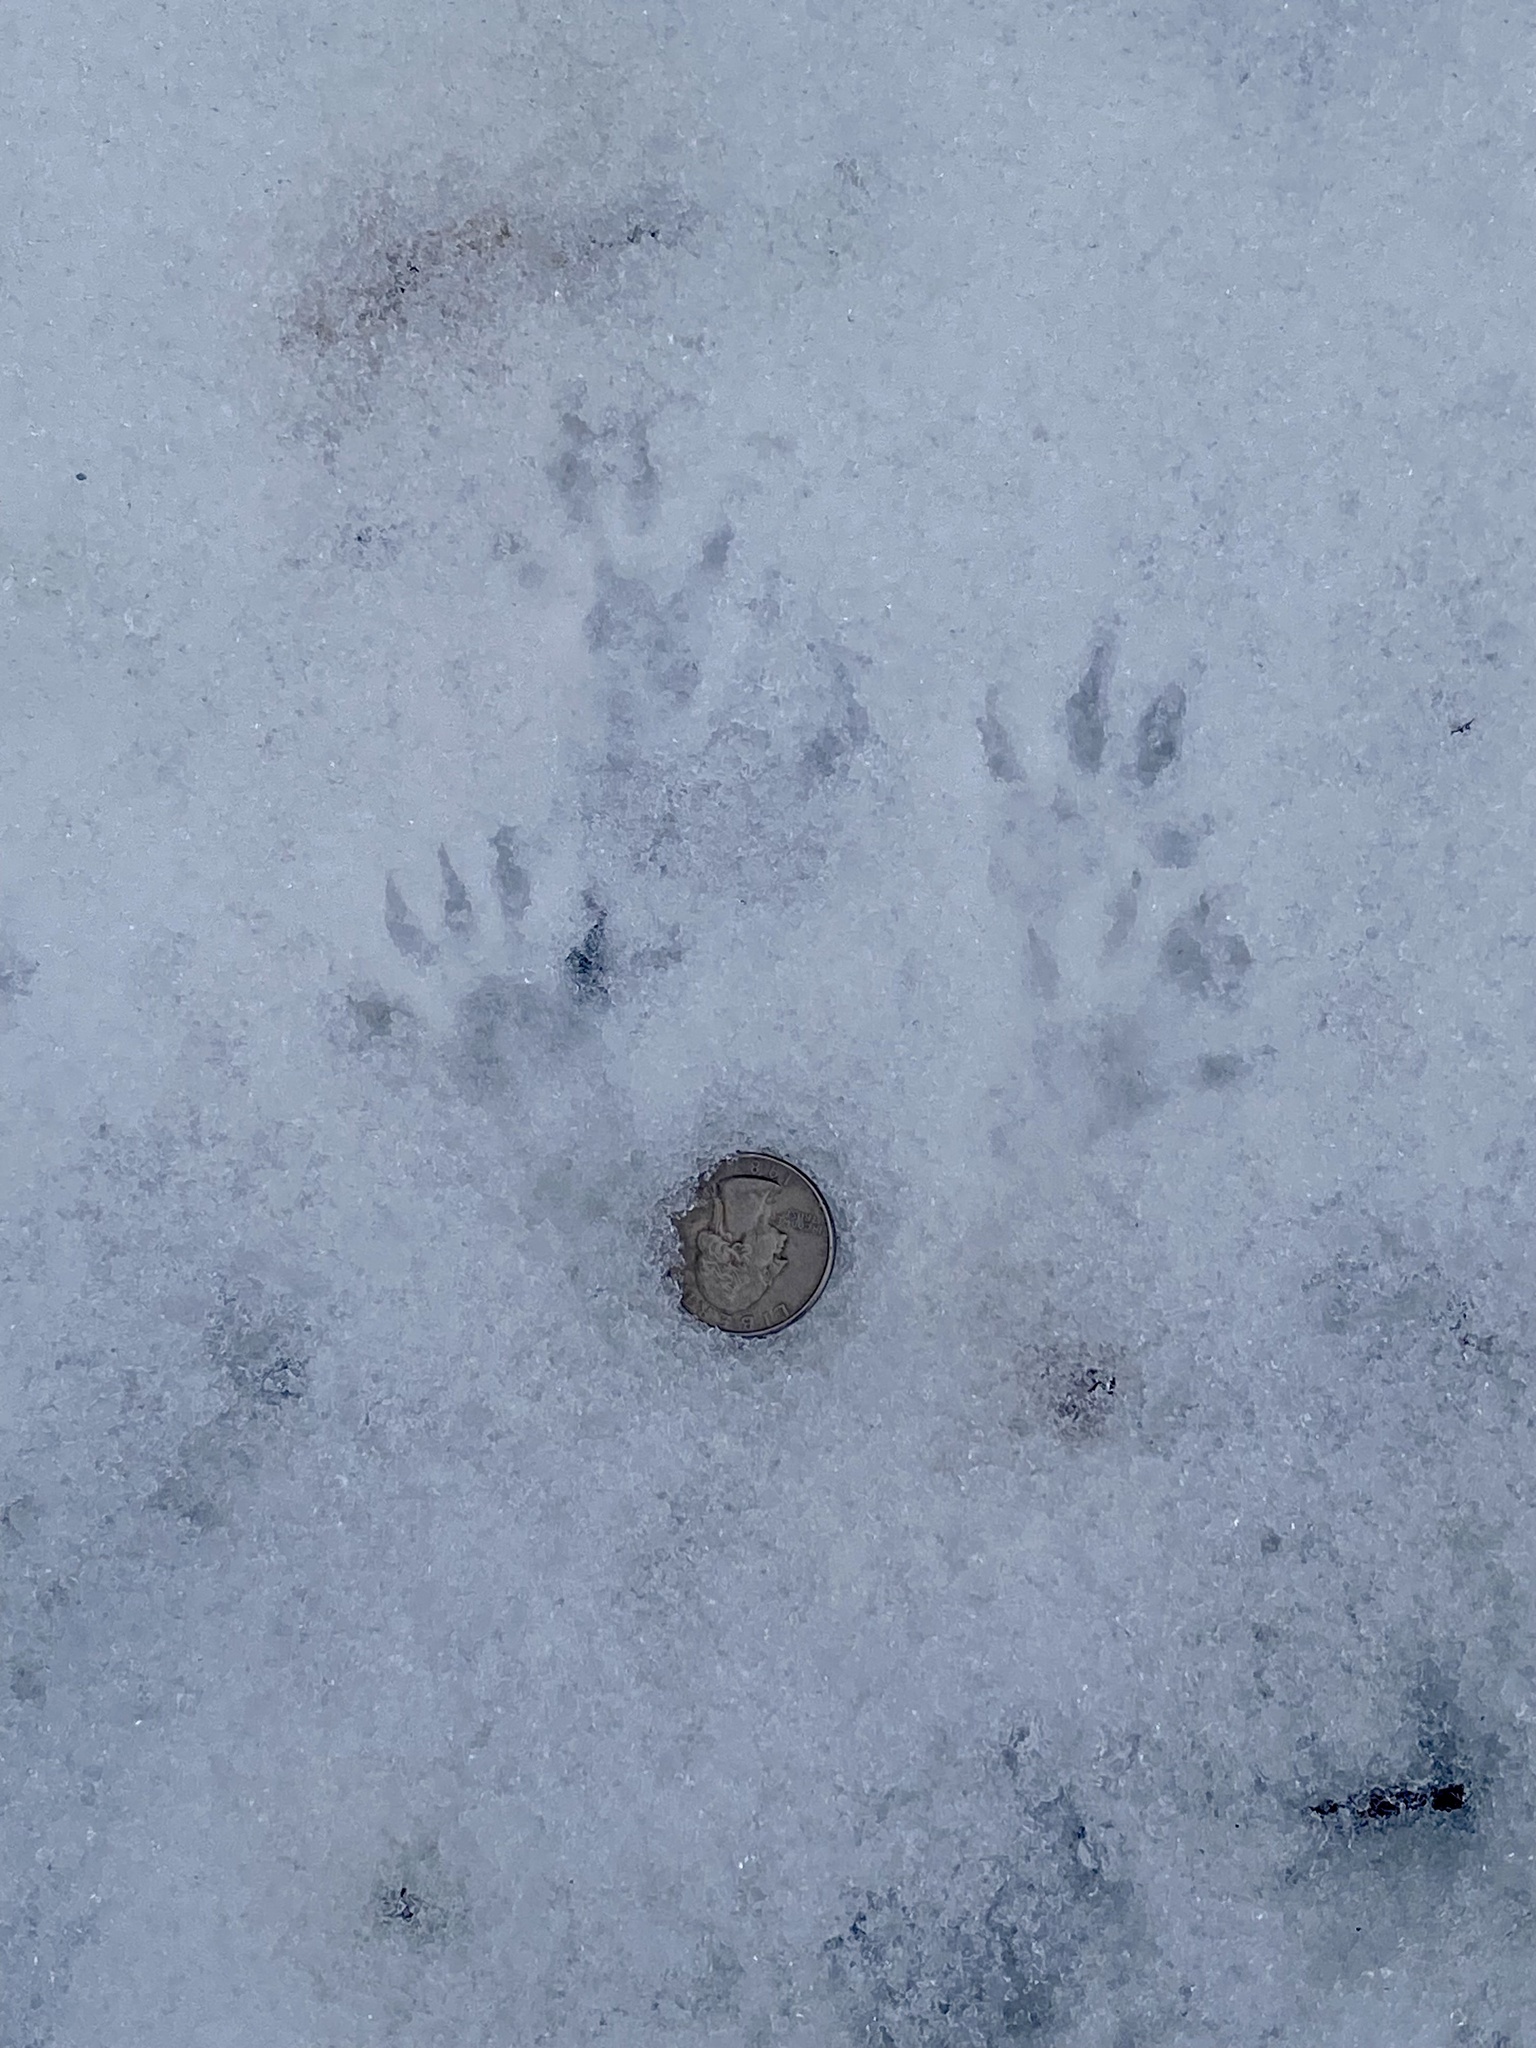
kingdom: Animalia
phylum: Chordata
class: Mammalia
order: Rodentia
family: Sciuridae
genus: Sciurus
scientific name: Sciurus carolinensis
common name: Eastern gray squirrel
